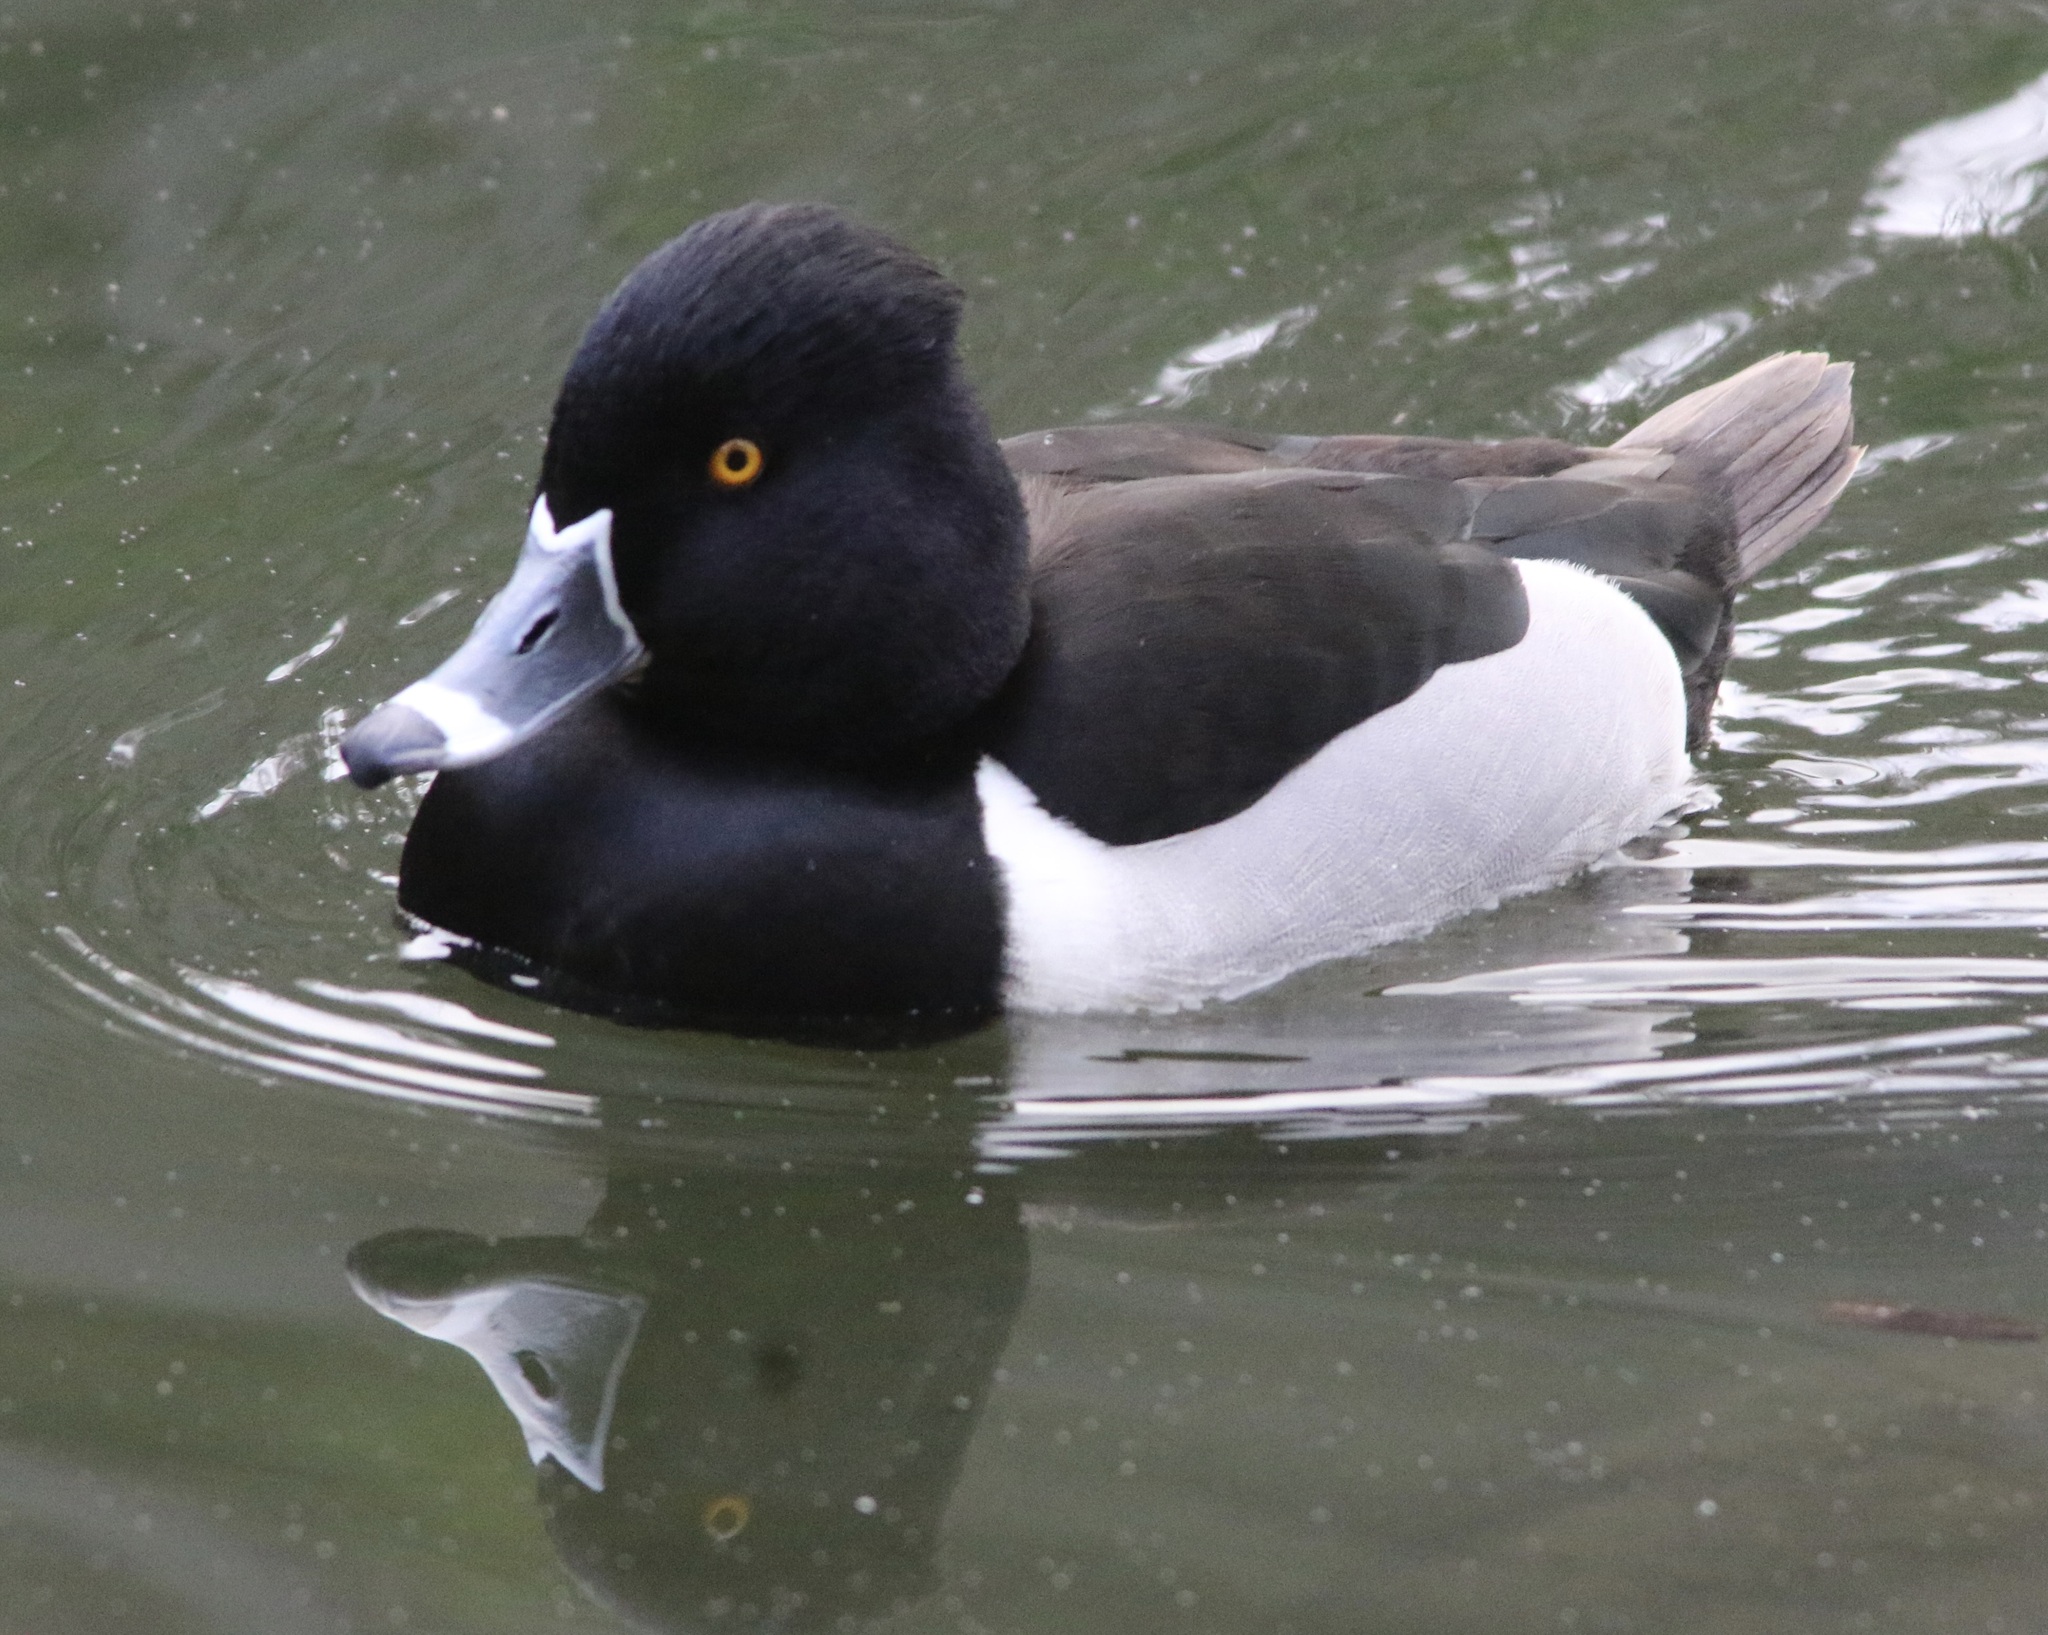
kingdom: Animalia
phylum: Chordata
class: Aves
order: Anseriformes
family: Anatidae
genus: Aythya
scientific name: Aythya collaris
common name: Ring-necked duck
